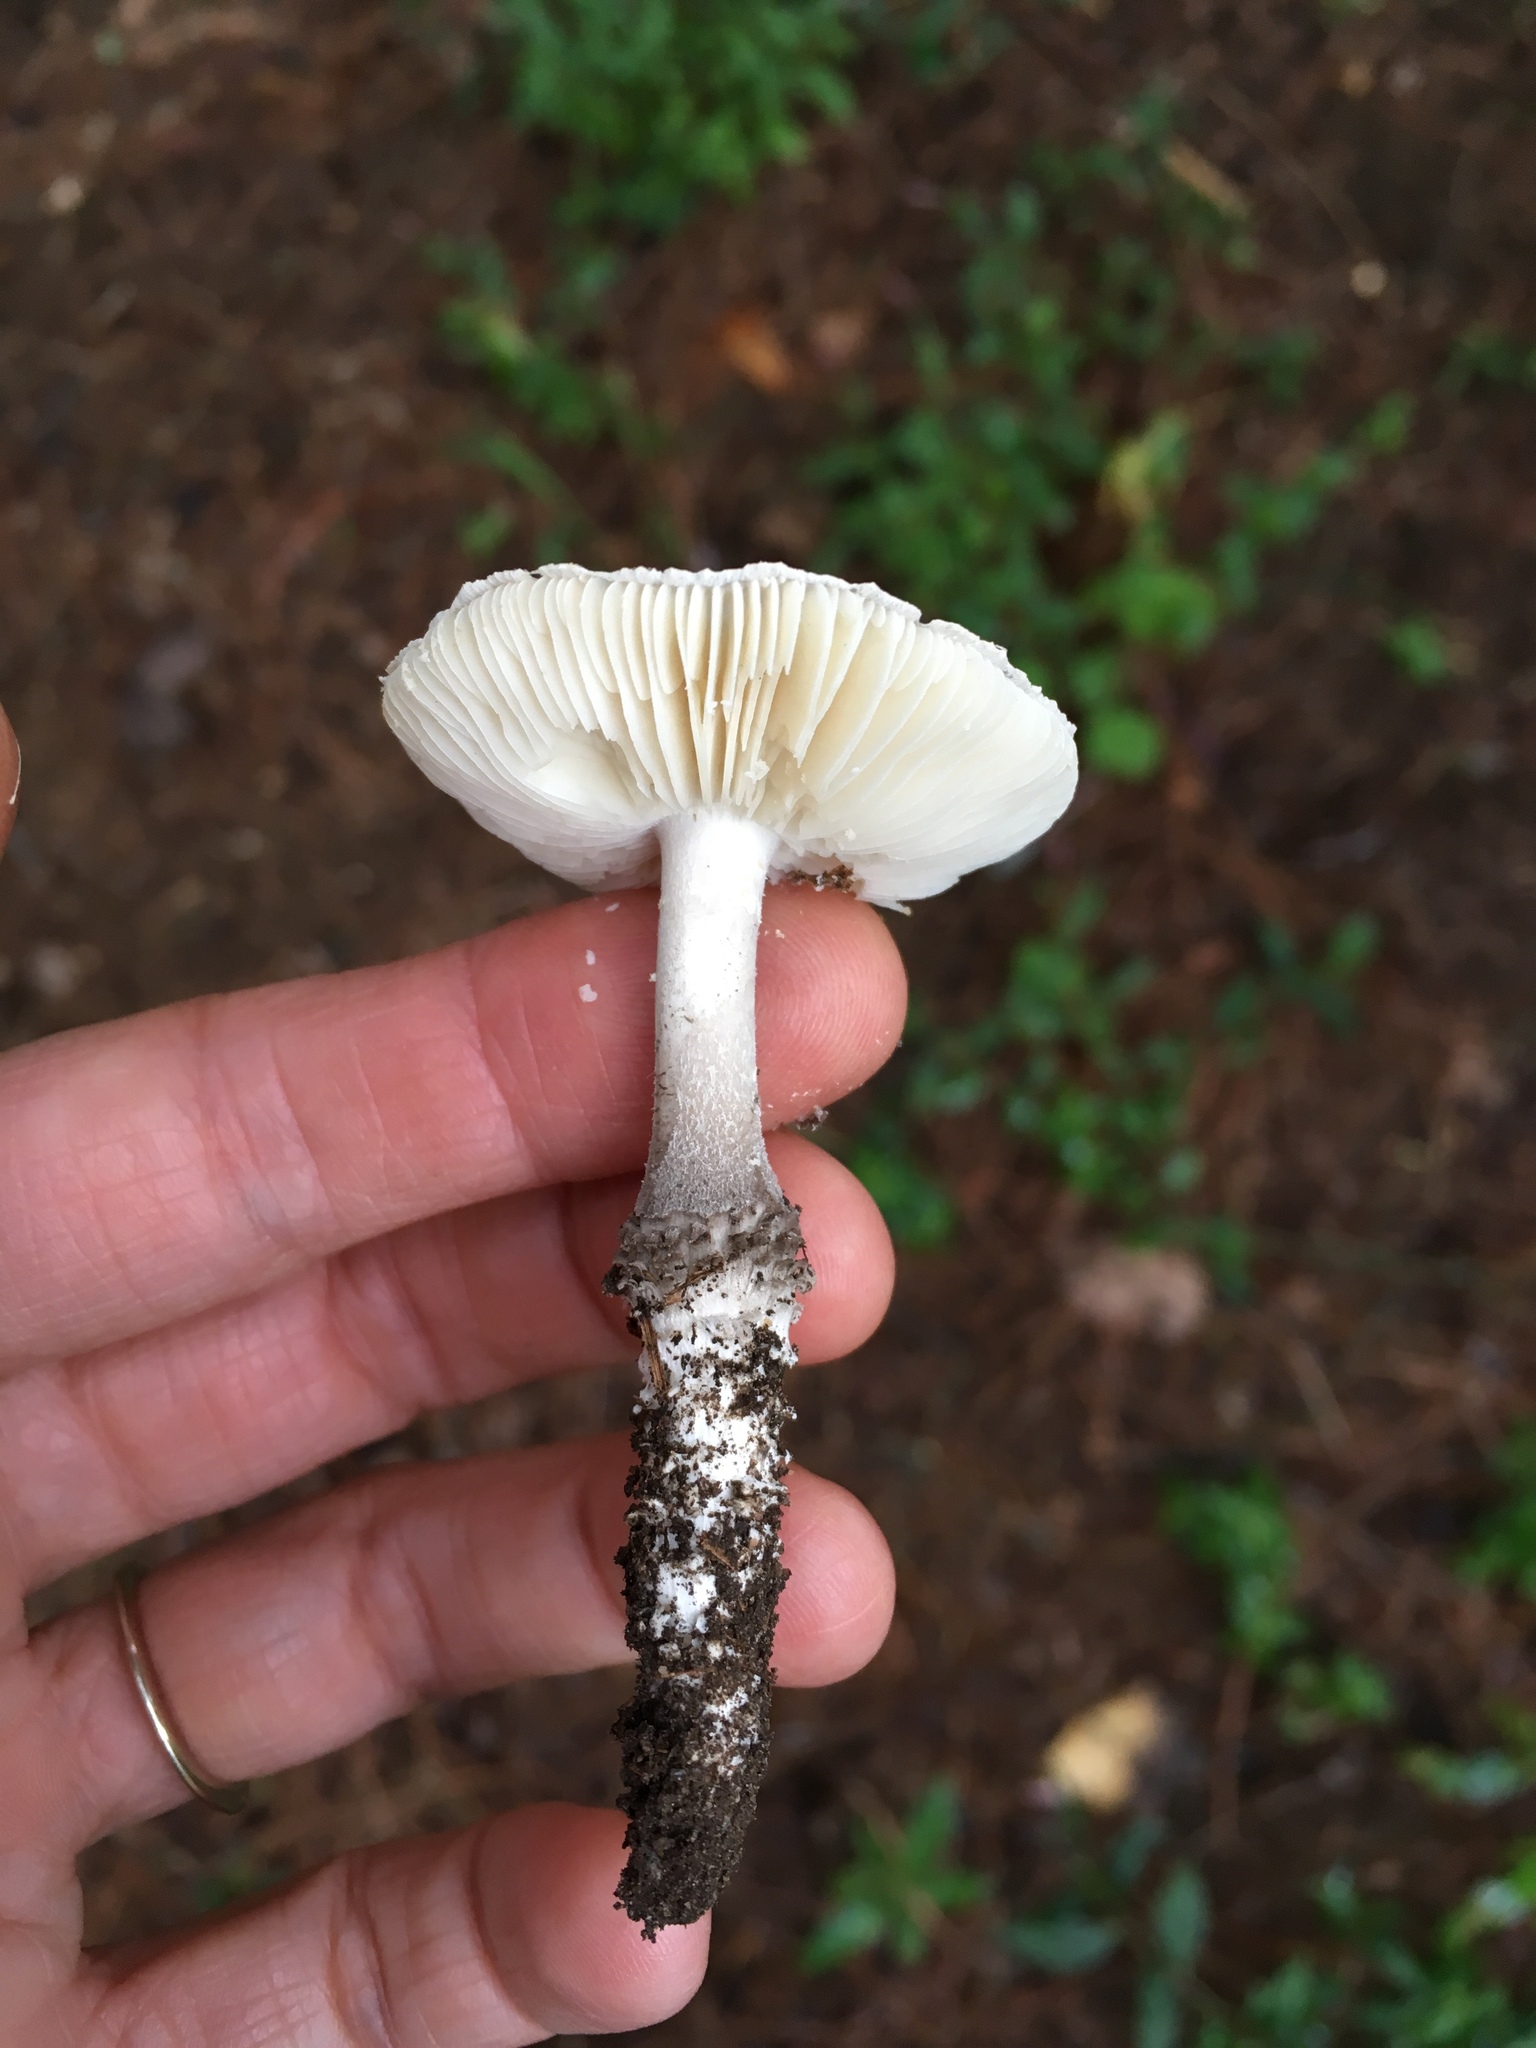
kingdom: Fungi
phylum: Basidiomycota
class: Agaricomycetes
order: Agaricales
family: Amanitaceae
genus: Amanita
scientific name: Amanita onusta
